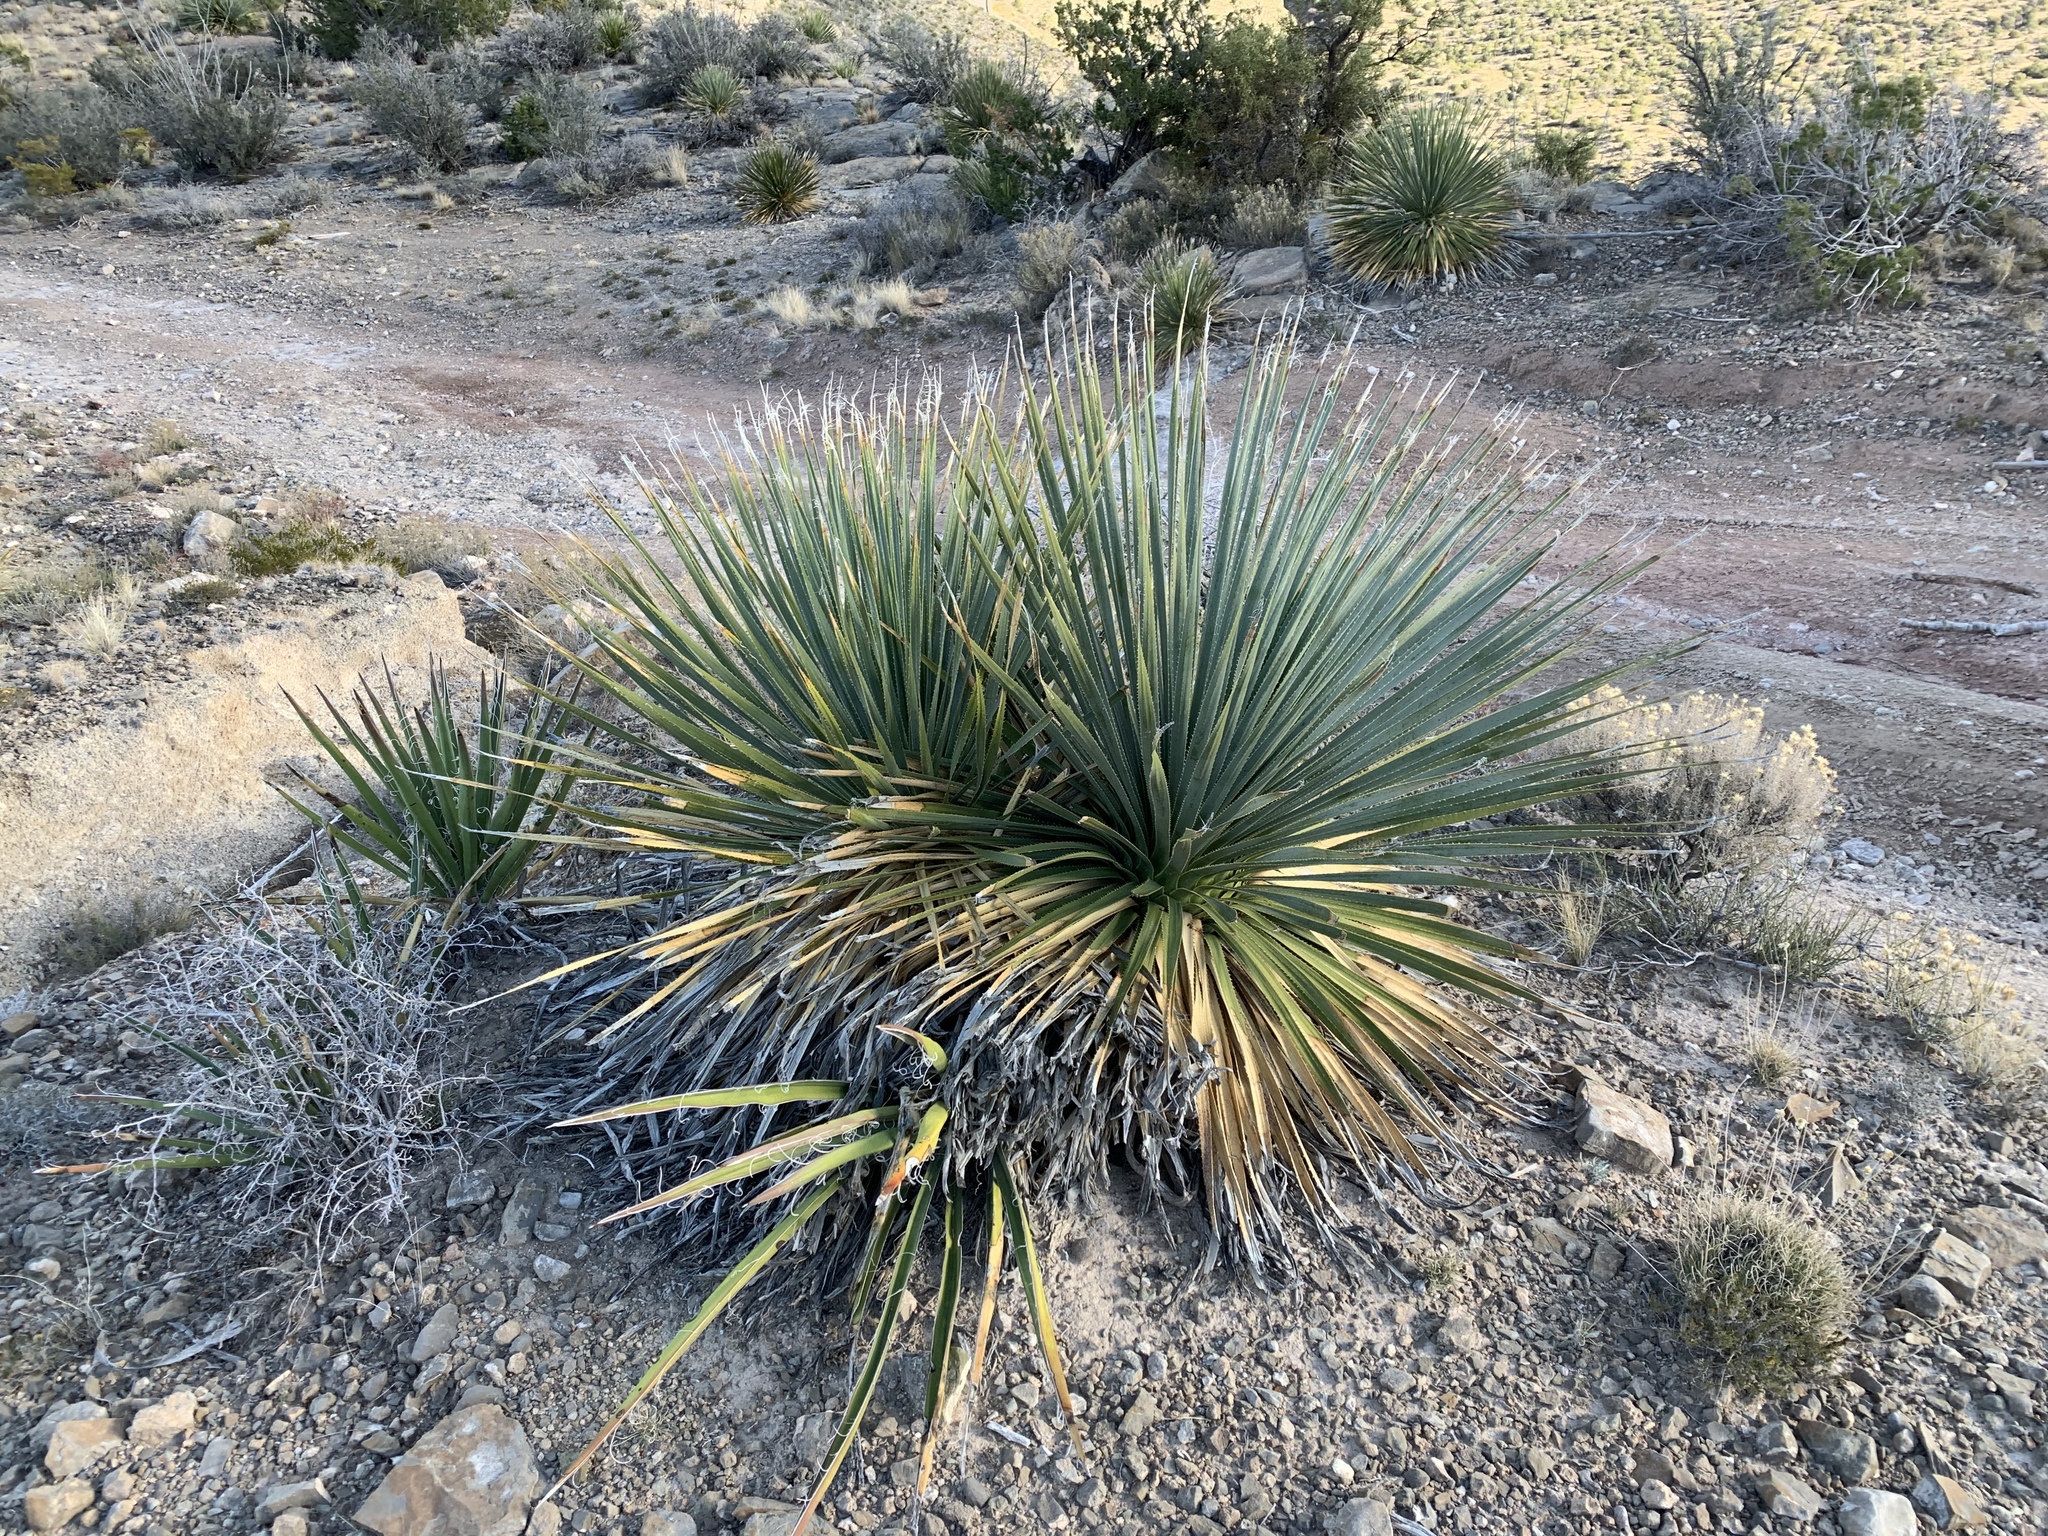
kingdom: Plantae
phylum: Tracheophyta
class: Liliopsida
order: Asparagales
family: Asparagaceae
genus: Dasylirion
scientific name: Dasylirion wheeleri
